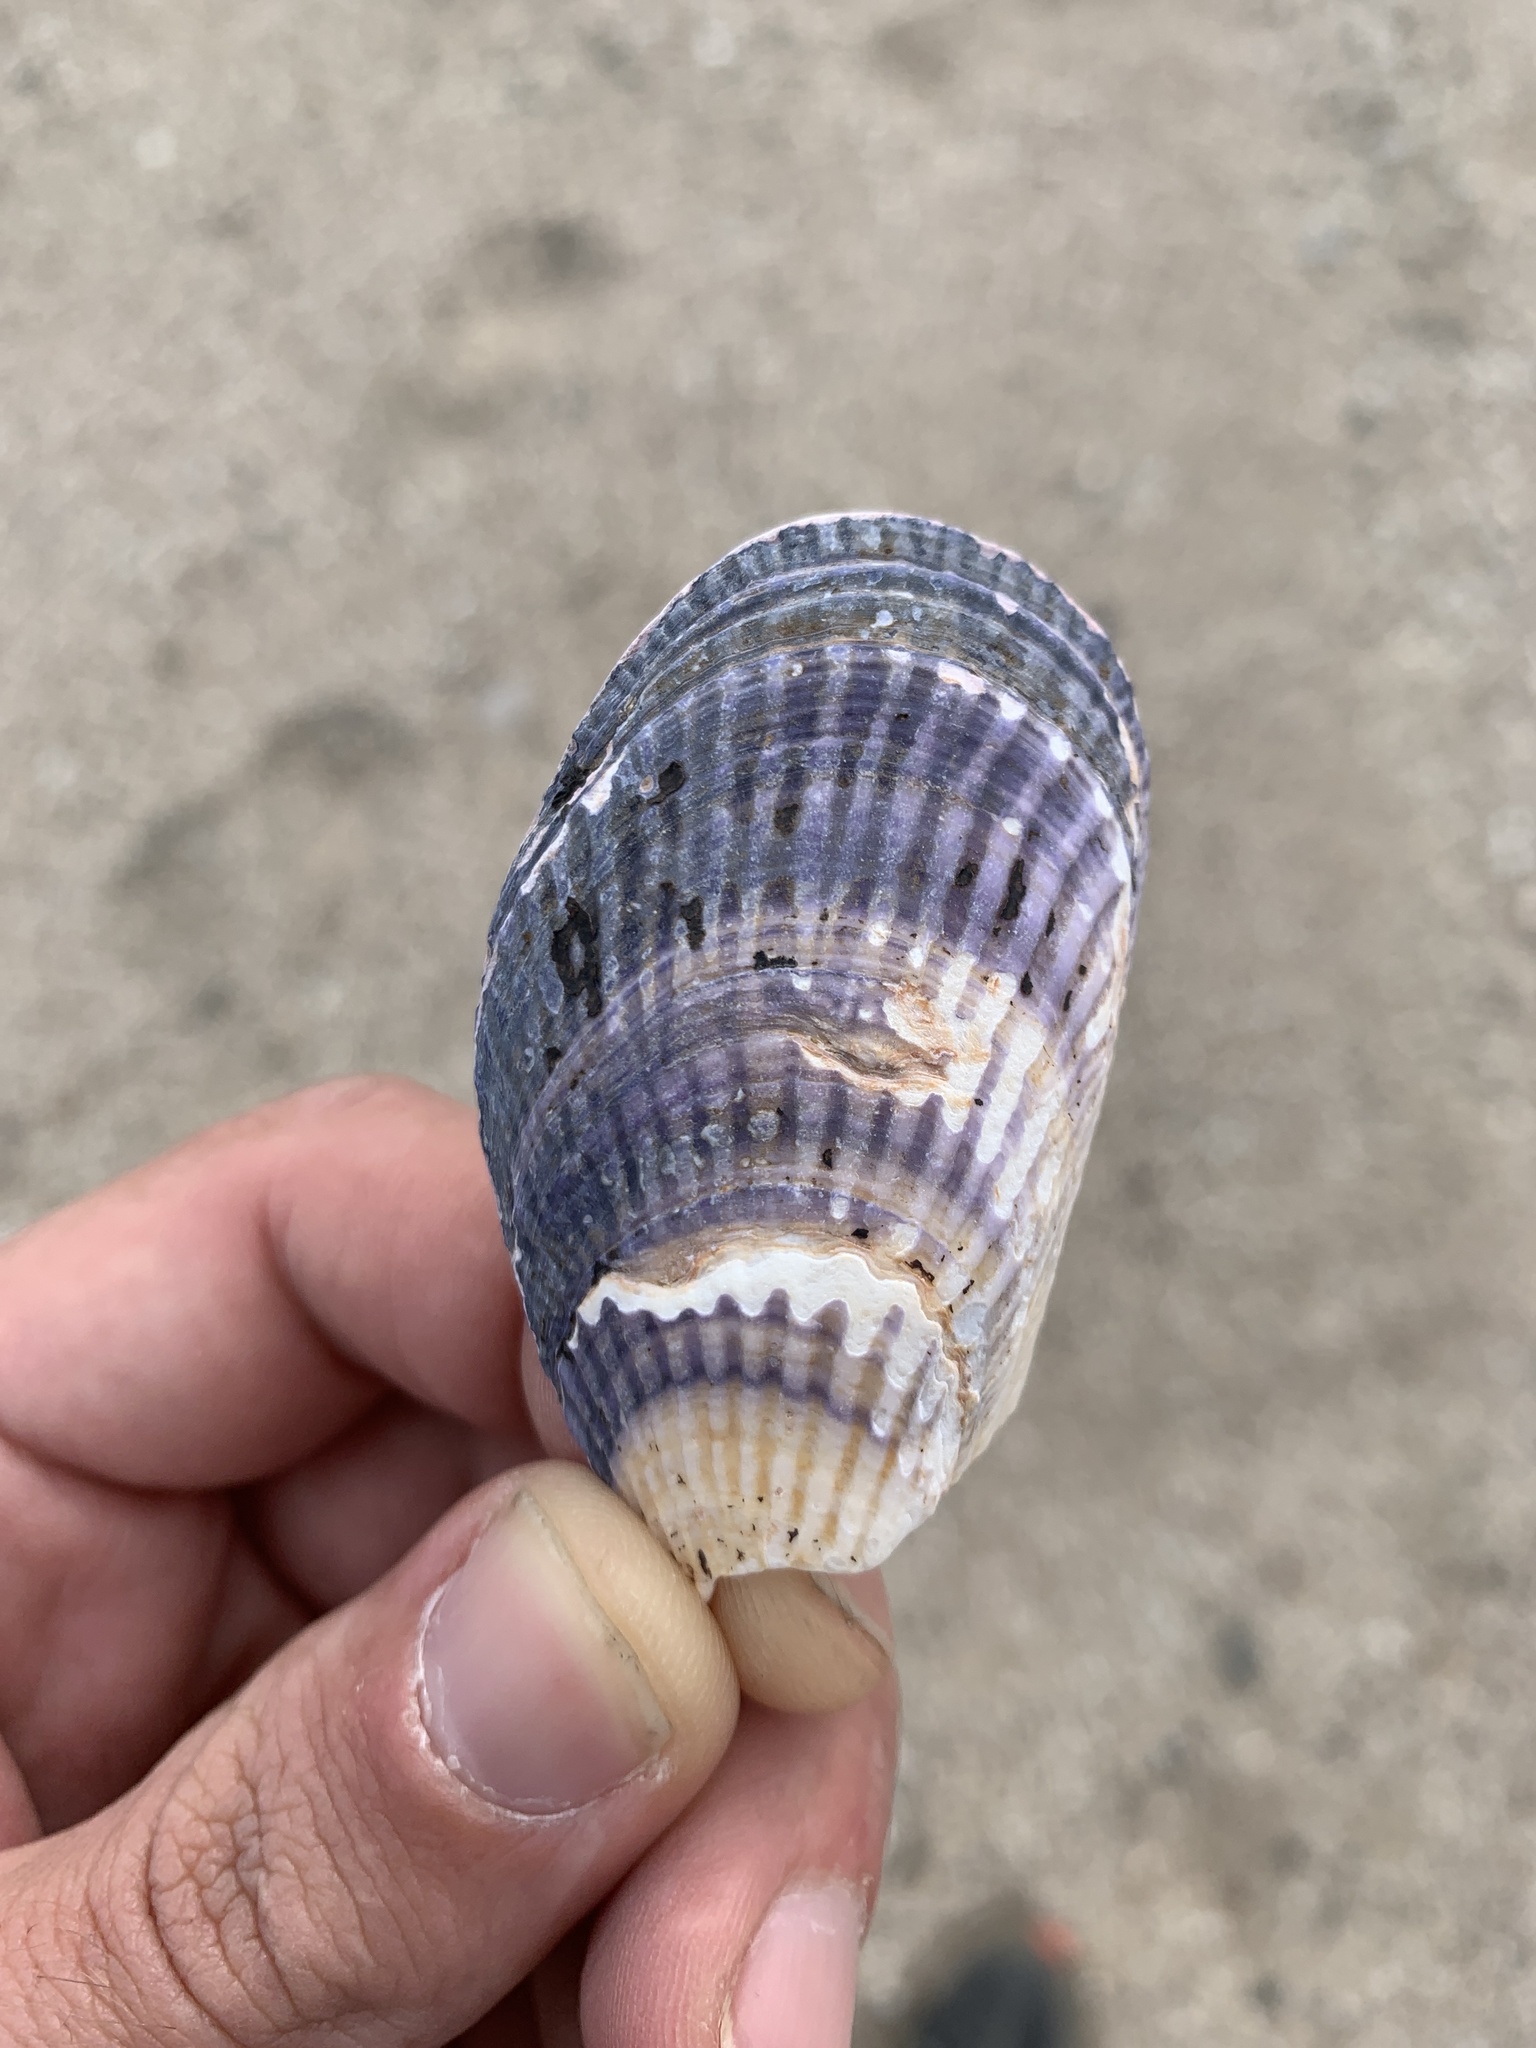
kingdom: Animalia
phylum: Mollusca
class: Bivalvia
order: Mytilida
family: Mytilidae
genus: Aulacomya
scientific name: Aulacomya atra
